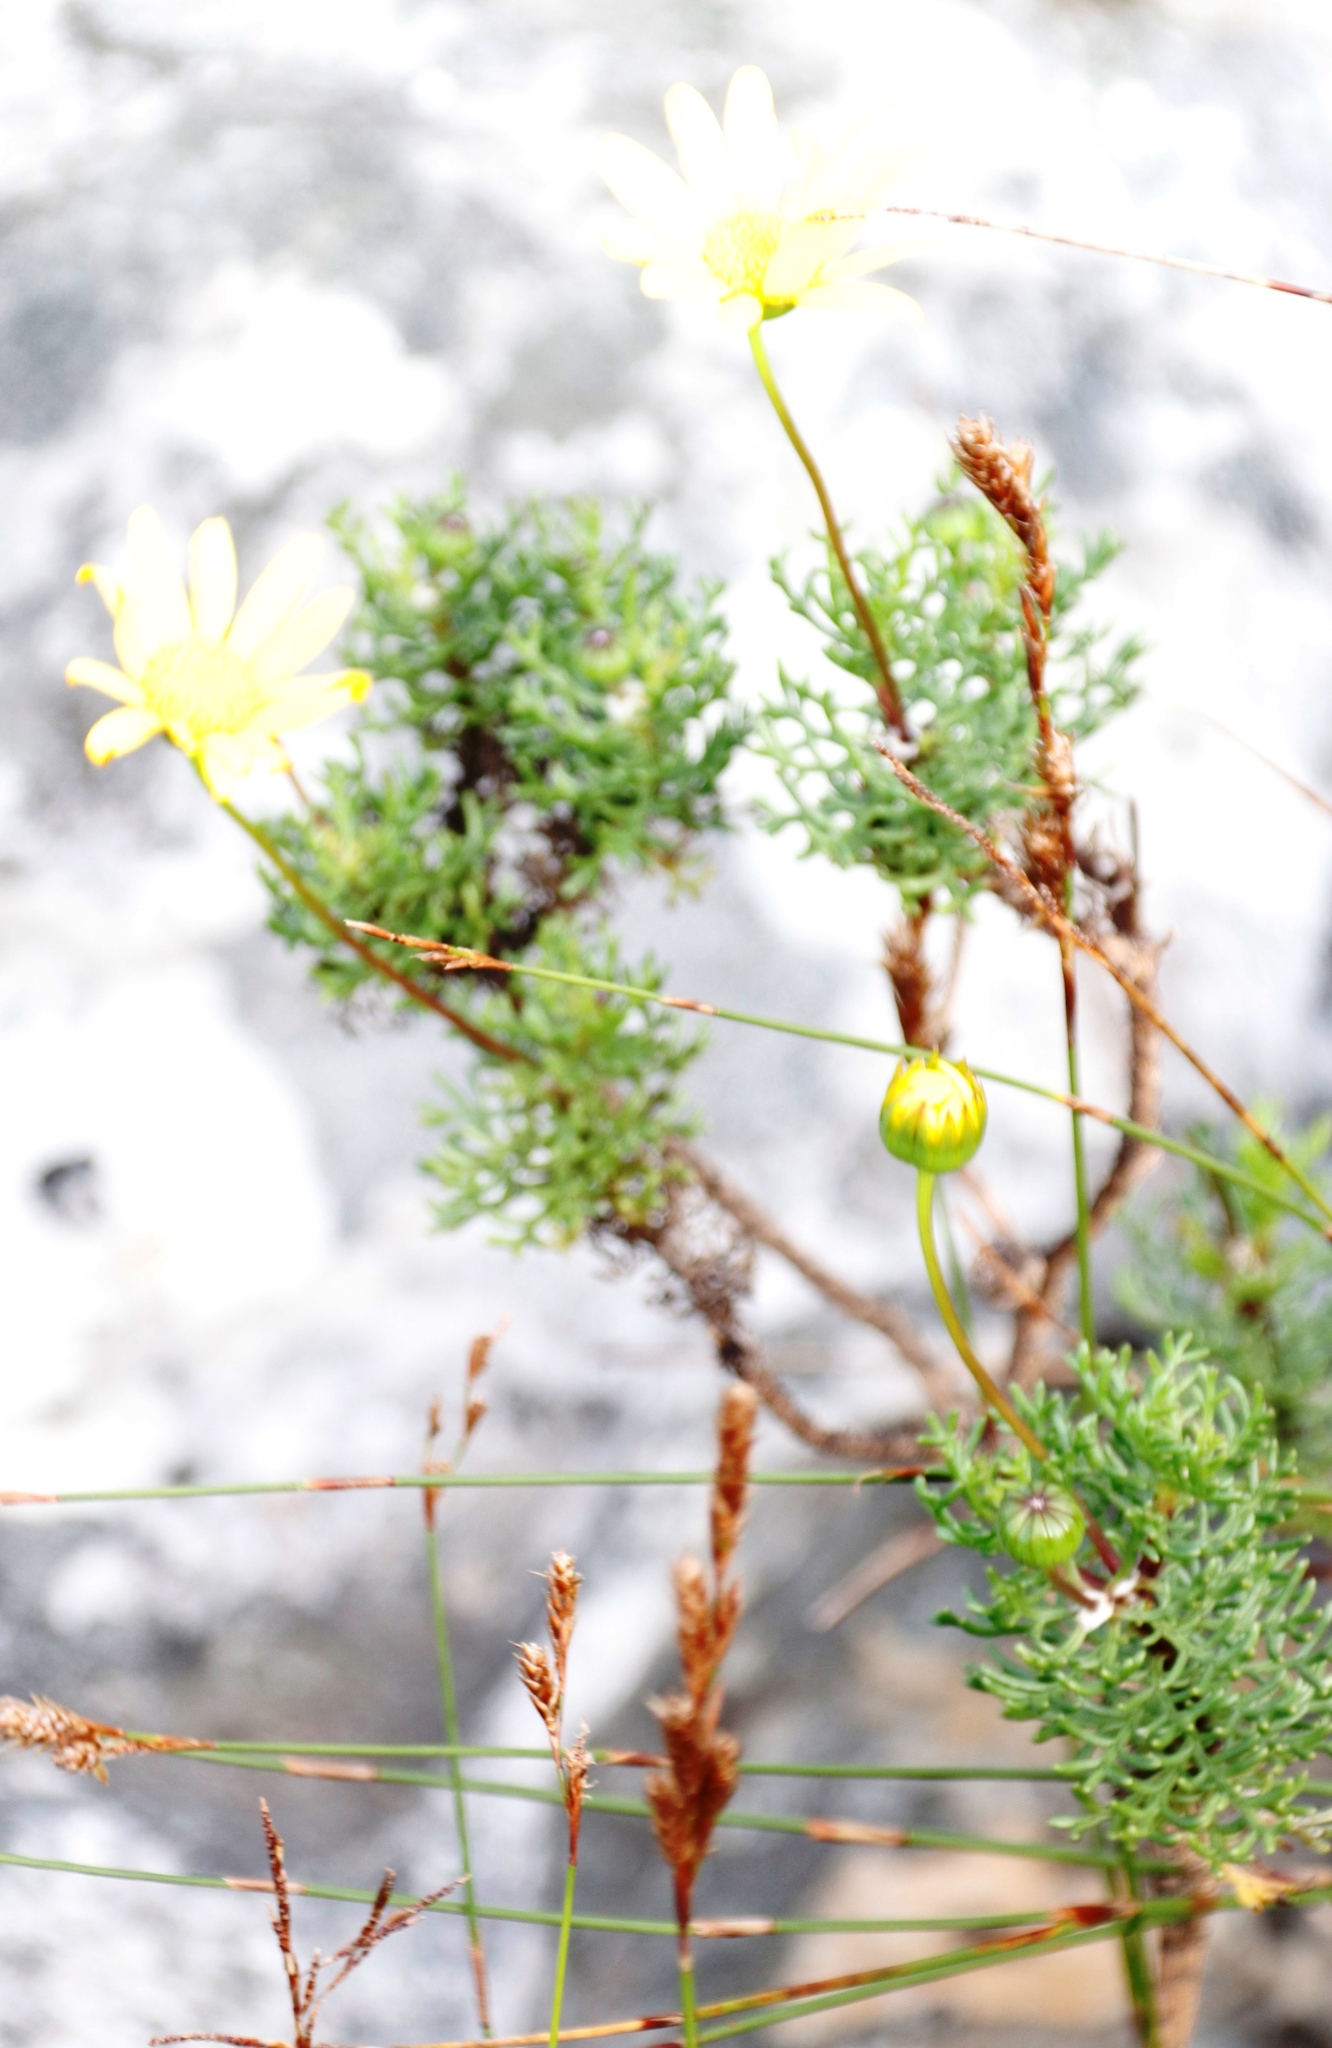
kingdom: Plantae
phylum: Tracheophyta
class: Magnoliopsida
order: Asterales
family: Asteraceae
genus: Euryops
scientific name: Euryops abrotanifolius
